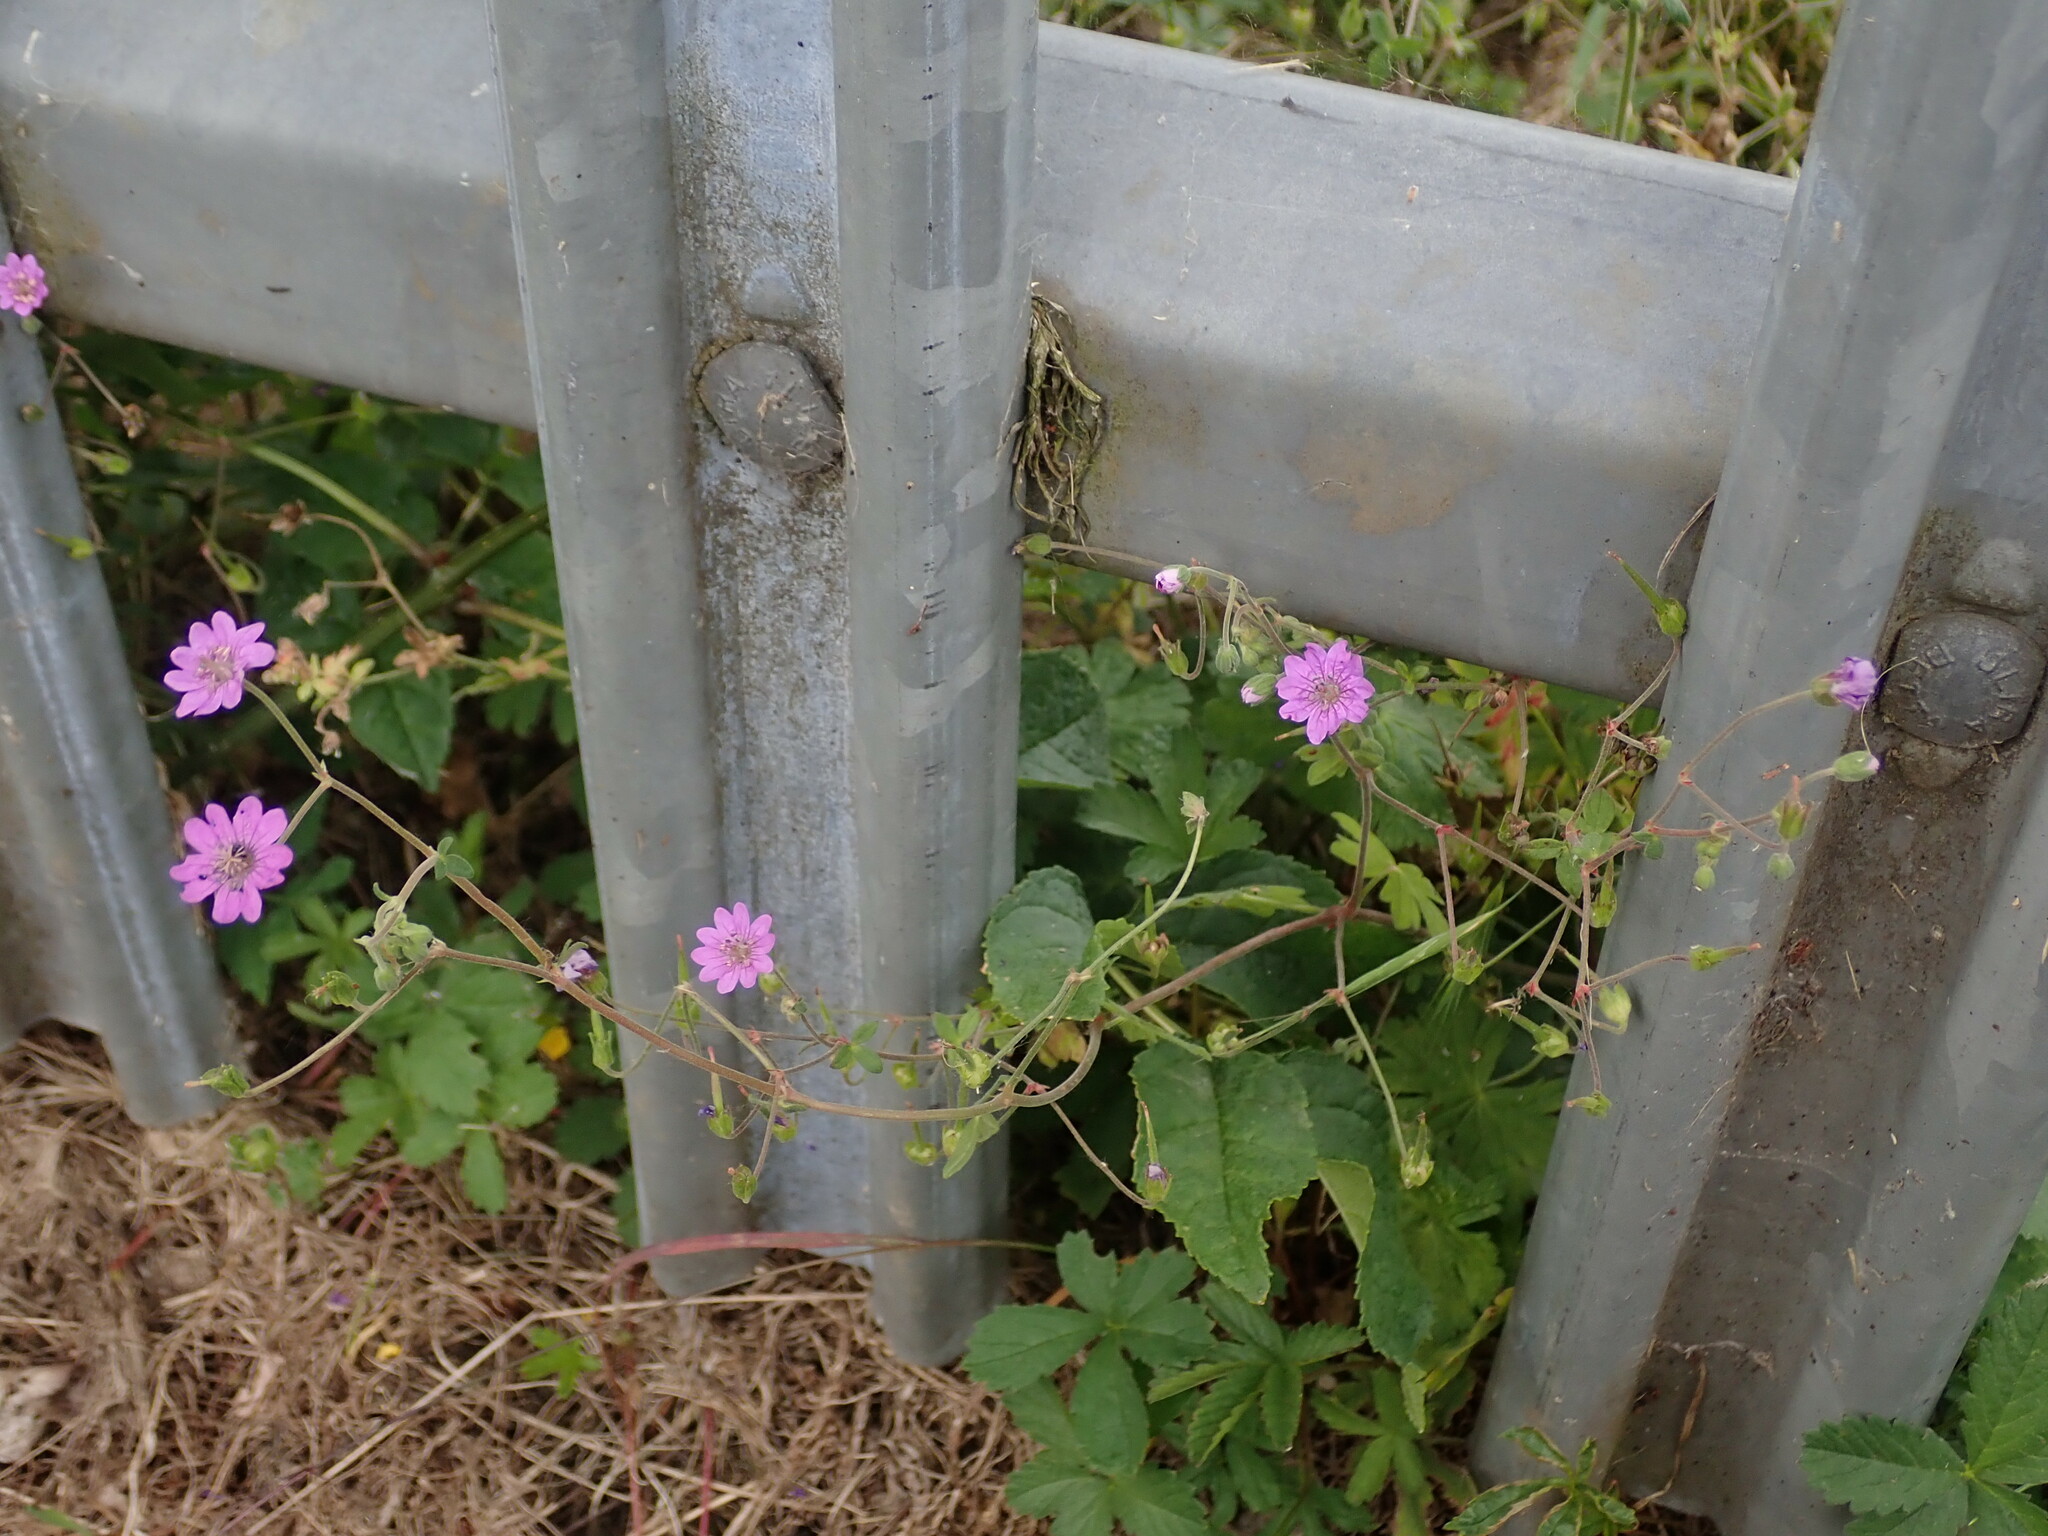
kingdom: Plantae
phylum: Tracheophyta
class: Magnoliopsida
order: Geraniales
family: Geraniaceae
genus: Geranium
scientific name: Geranium pyrenaicum
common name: Hedgerow crane's-bill
